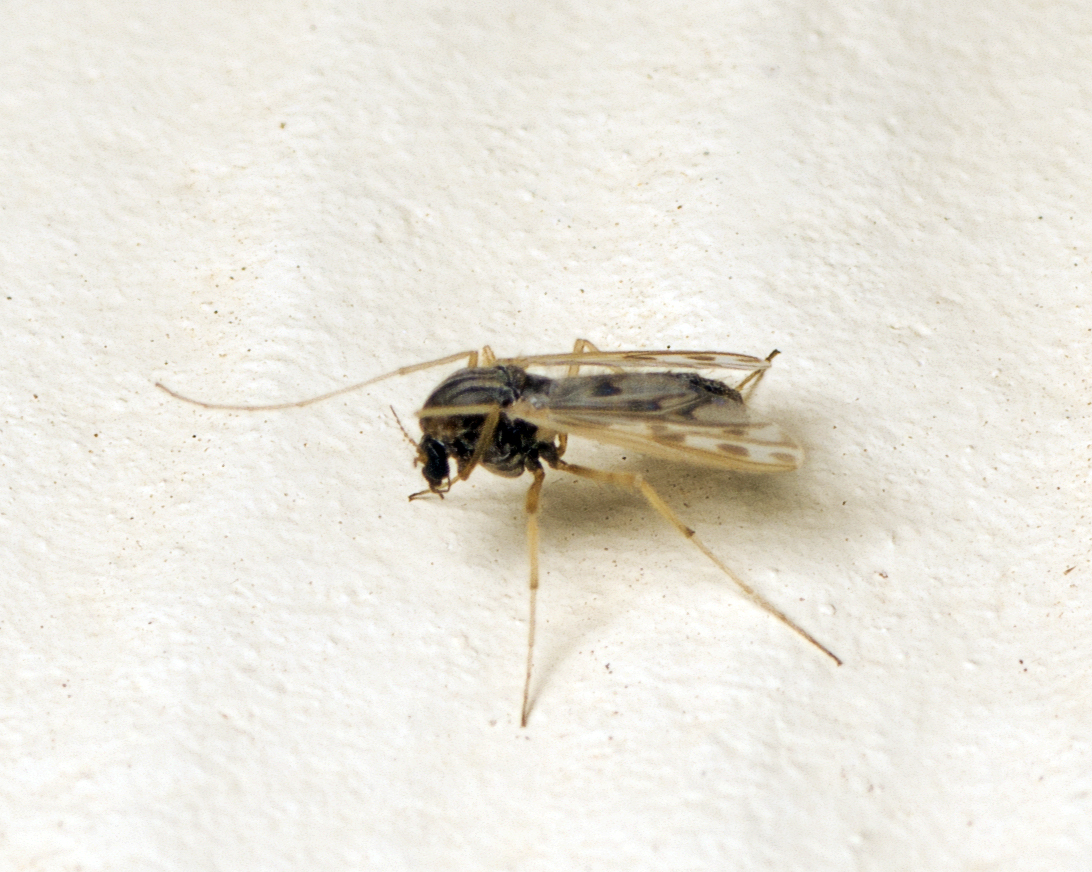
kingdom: Animalia
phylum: Arthropoda
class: Insecta
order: Diptera
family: Chironomidae
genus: Polypedilum
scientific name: Polypedilum nubifer
